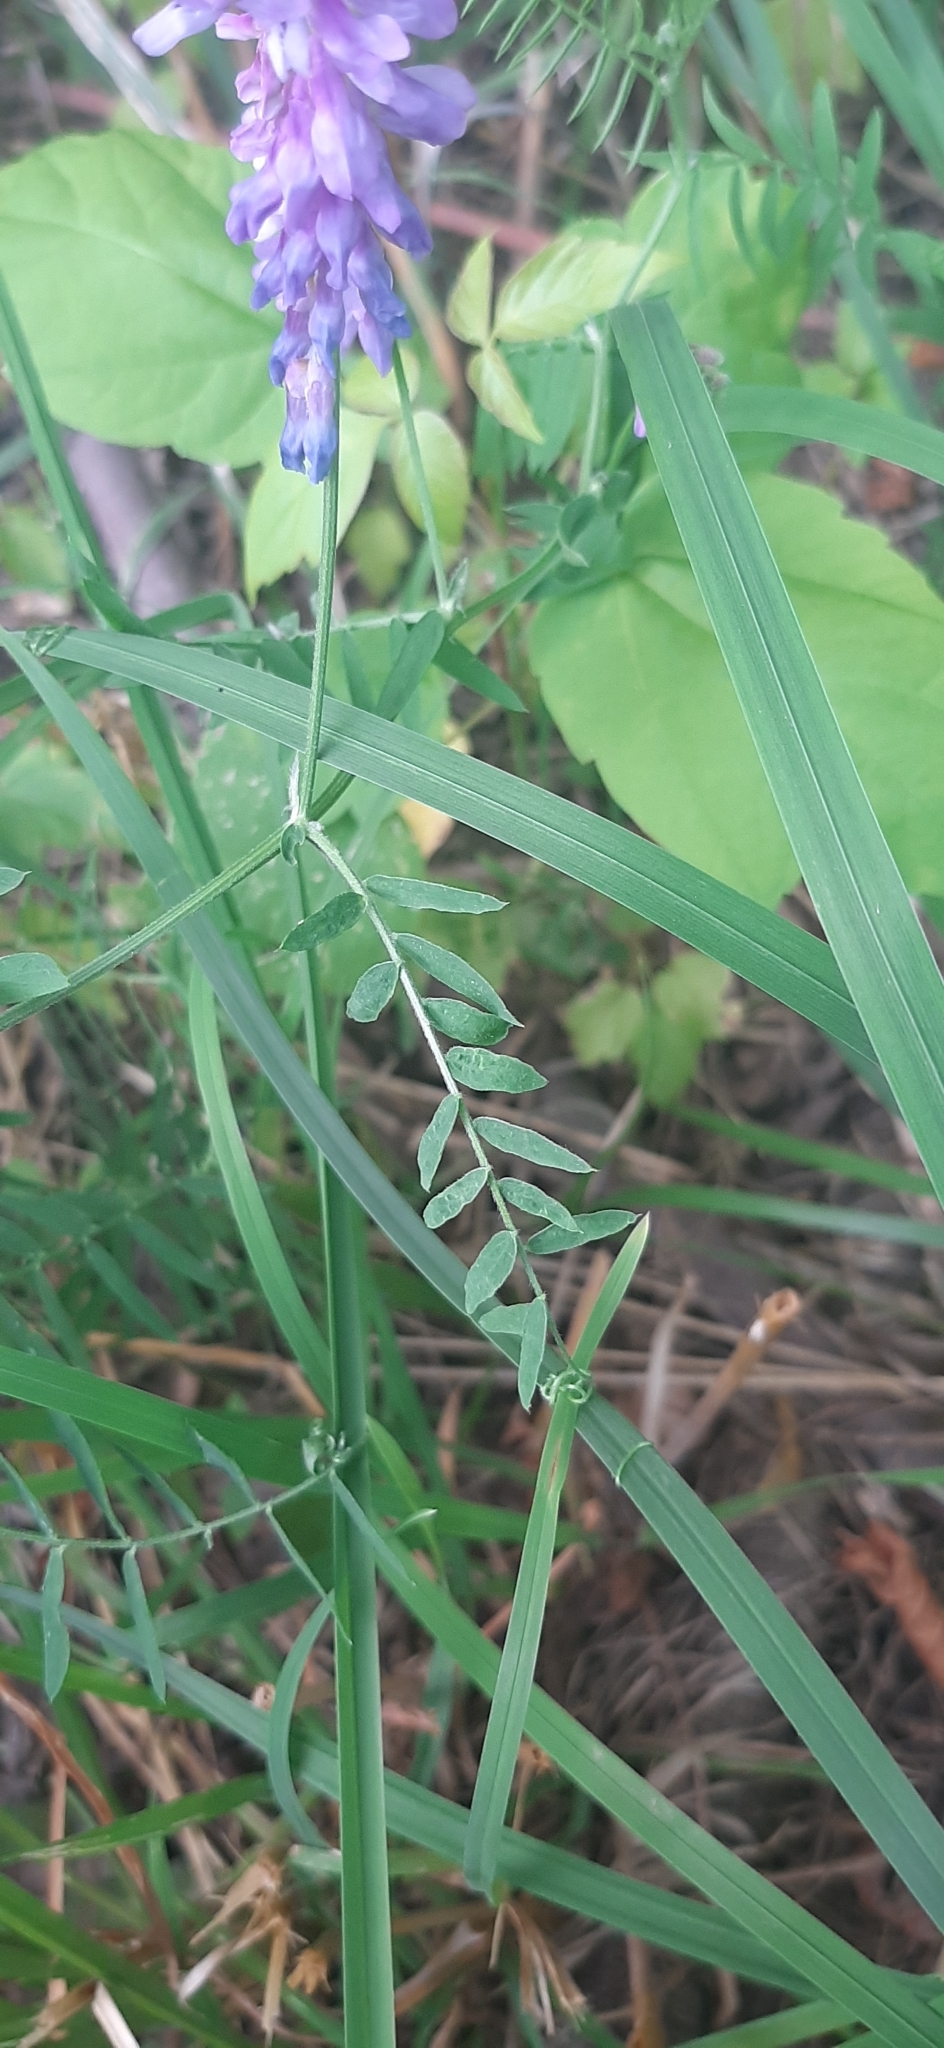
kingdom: Plantae
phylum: Tracheophyta
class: Magnoliopsida
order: Fabales
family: Fabaceae
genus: Vicia
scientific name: Vicia cracca
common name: Bird vetch
